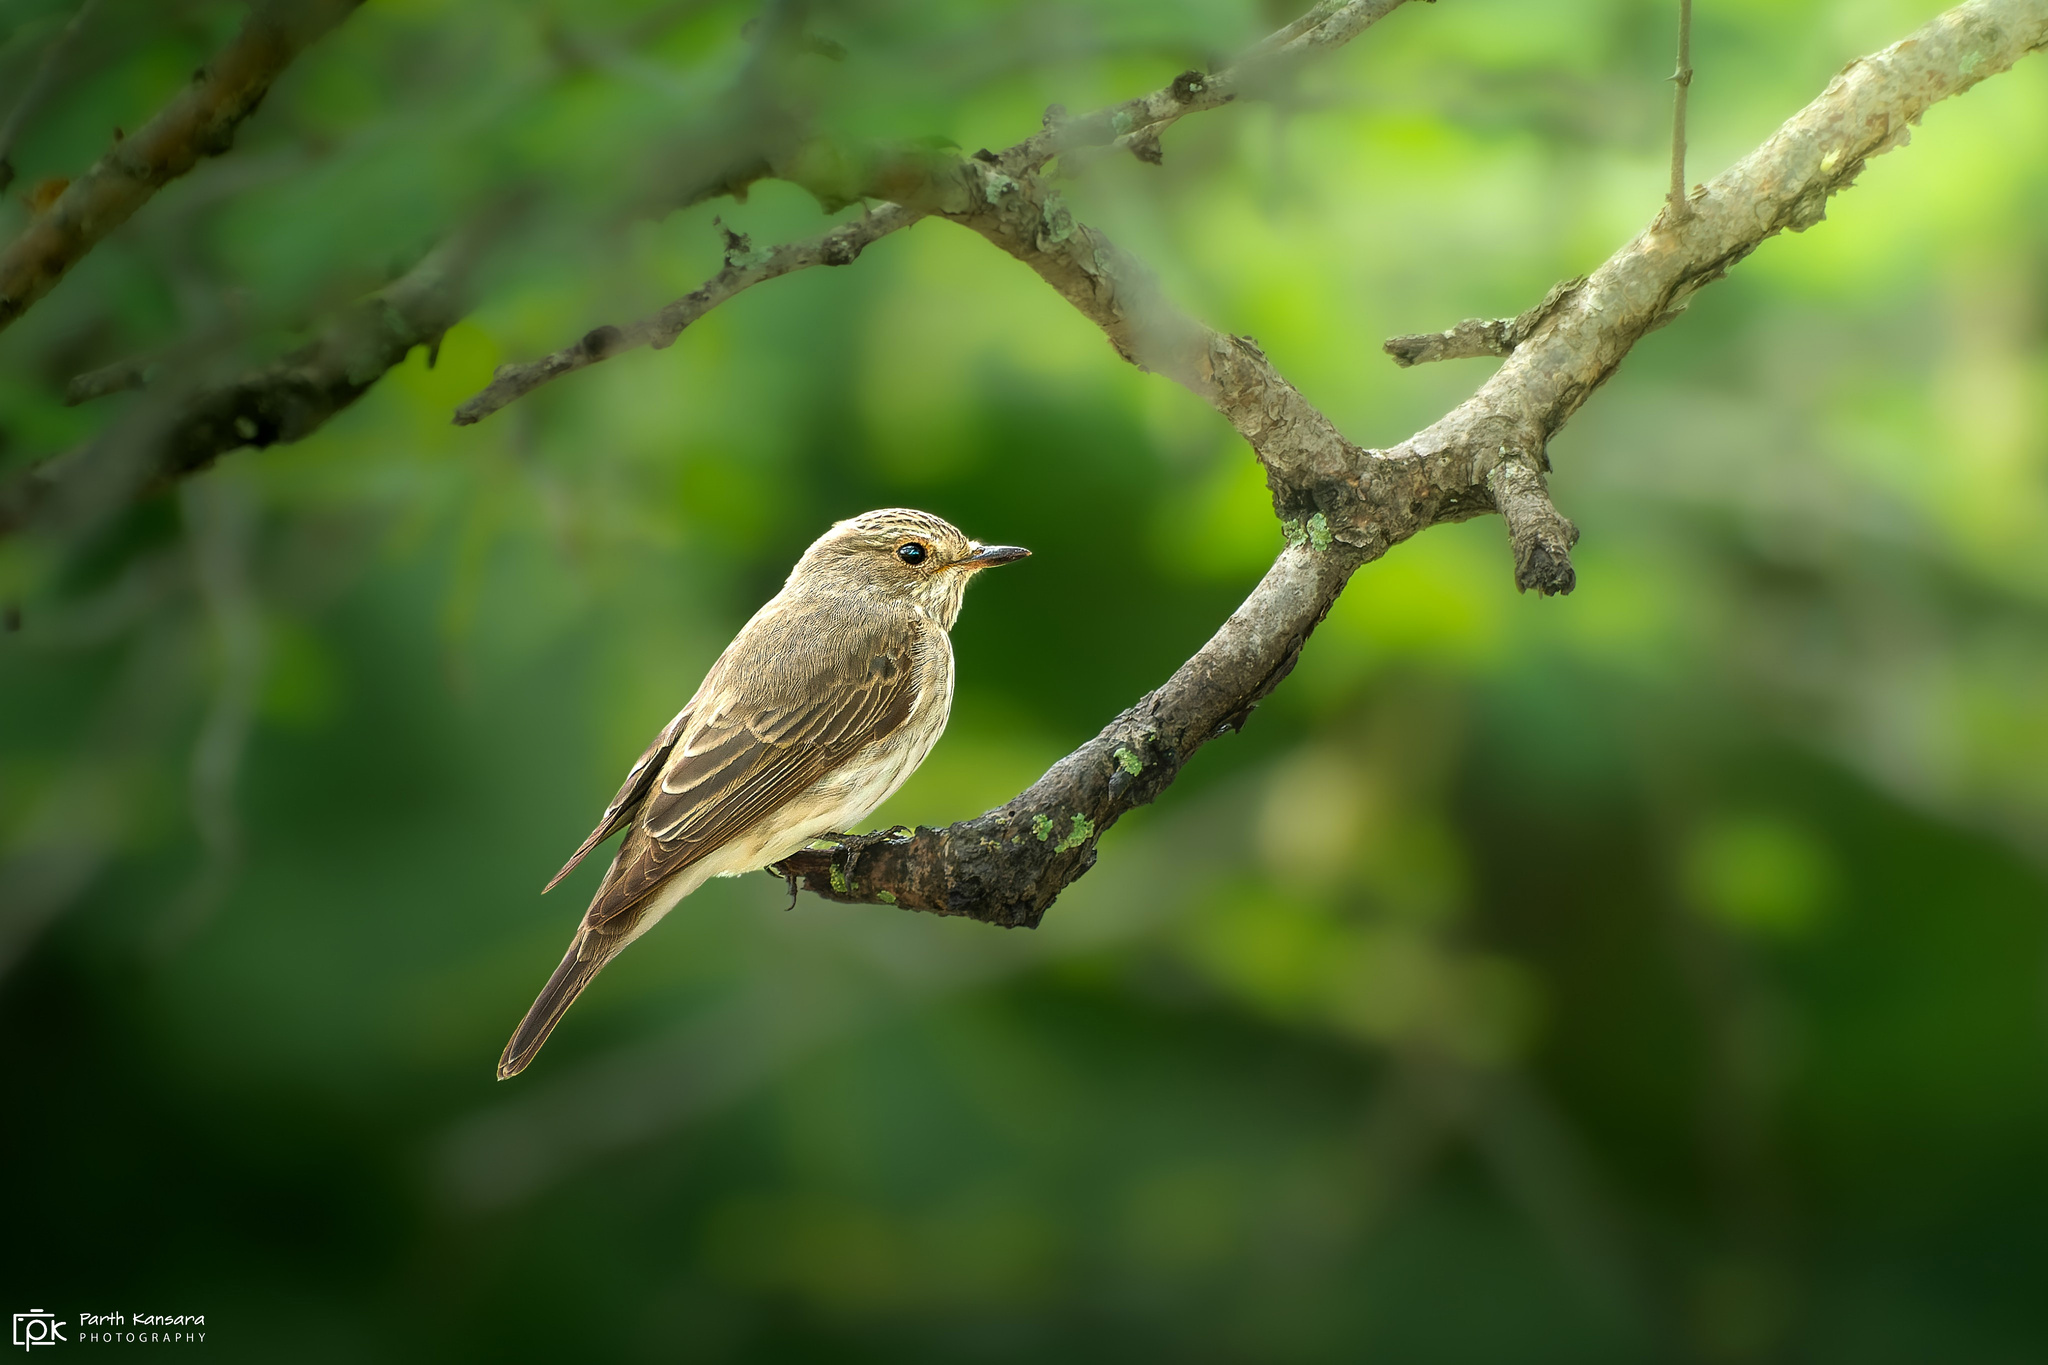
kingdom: Animalia
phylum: Chordata
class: Aves
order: Passeriformes
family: Muscicapidae
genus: Muscicapa
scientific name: Muscicapa striata
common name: Spotted flycatcher
